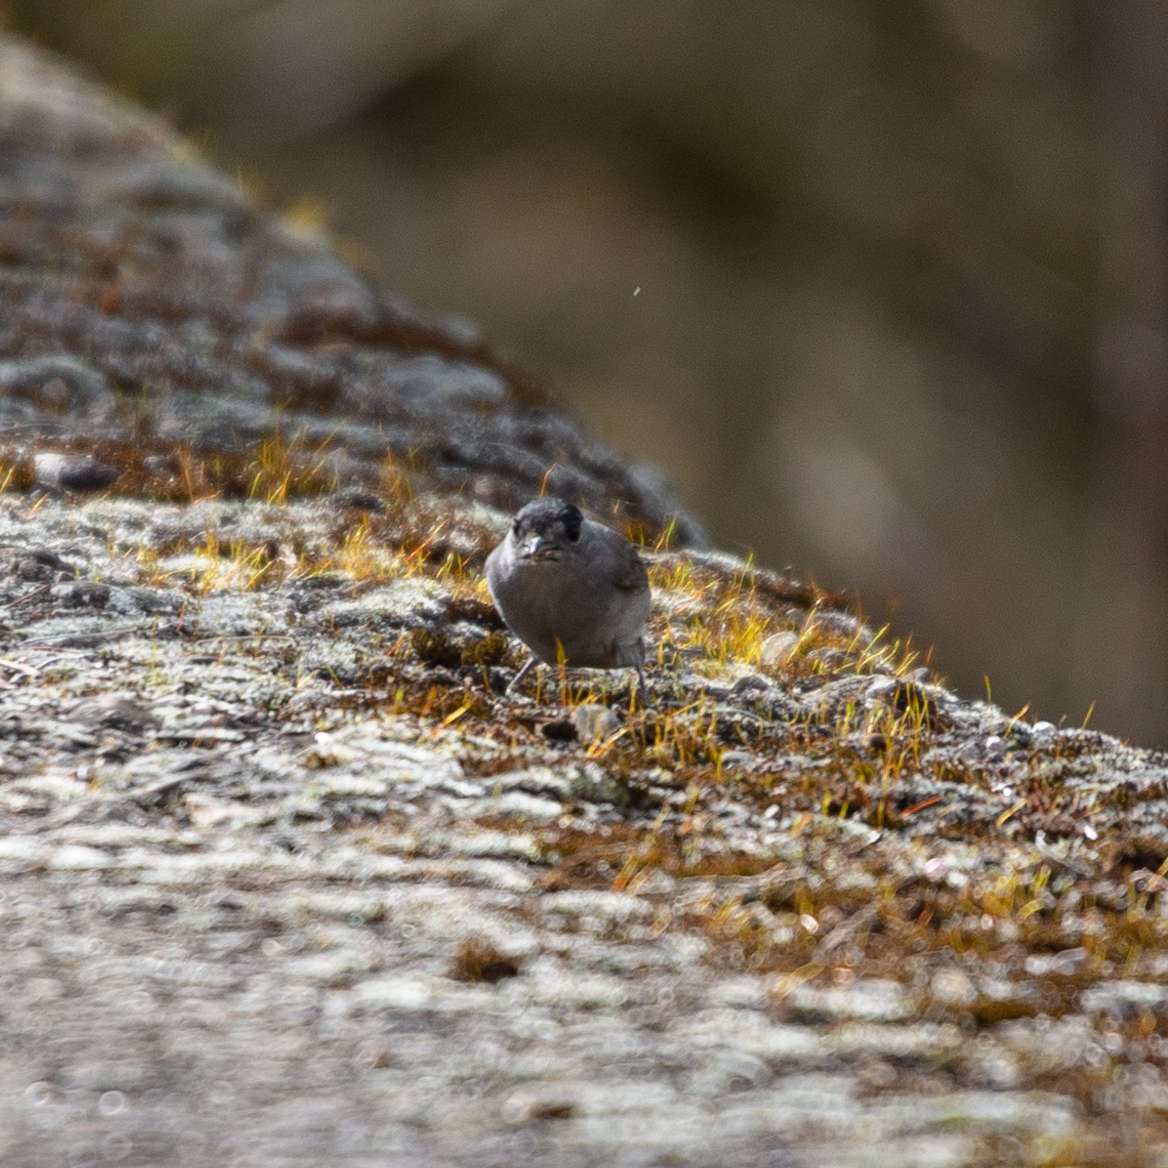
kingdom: Animalia
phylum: Chordata
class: Aves
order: Passeriformes
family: Sylviidae
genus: Sylvia
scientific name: Sylvia atricapilla
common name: Eurasian blackcap
